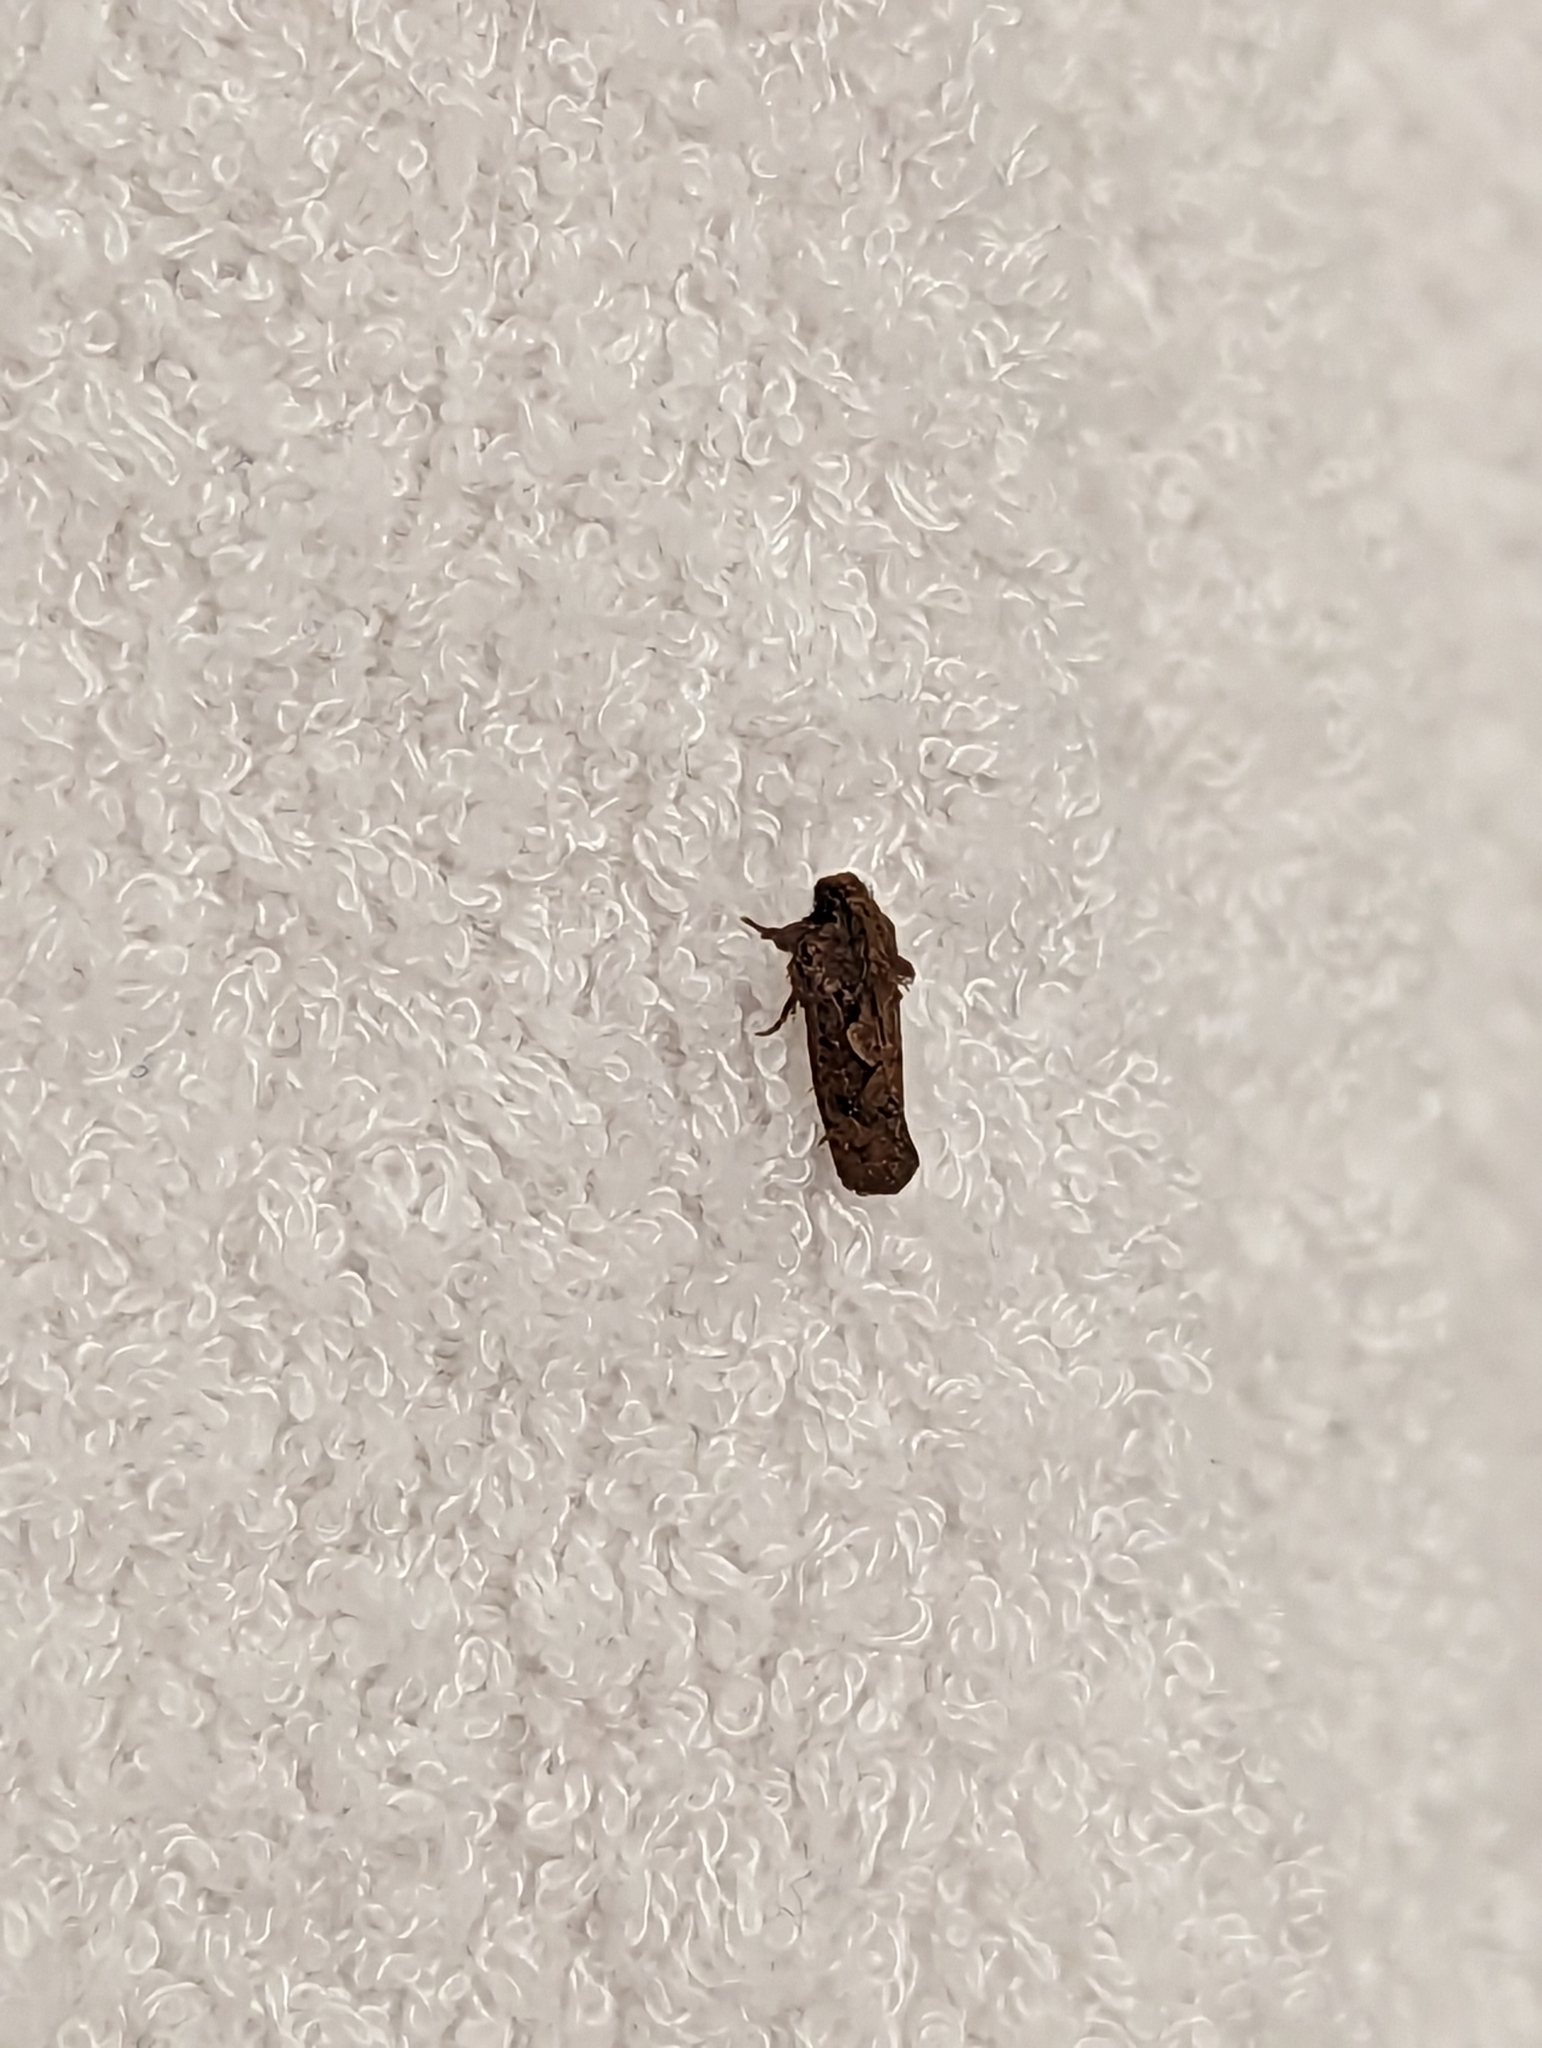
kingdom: Animalia
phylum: Arthropoda
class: Insecta
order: Lepidoptera
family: Tineidae
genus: Acrolophus
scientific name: Acrolophus walsinghami
